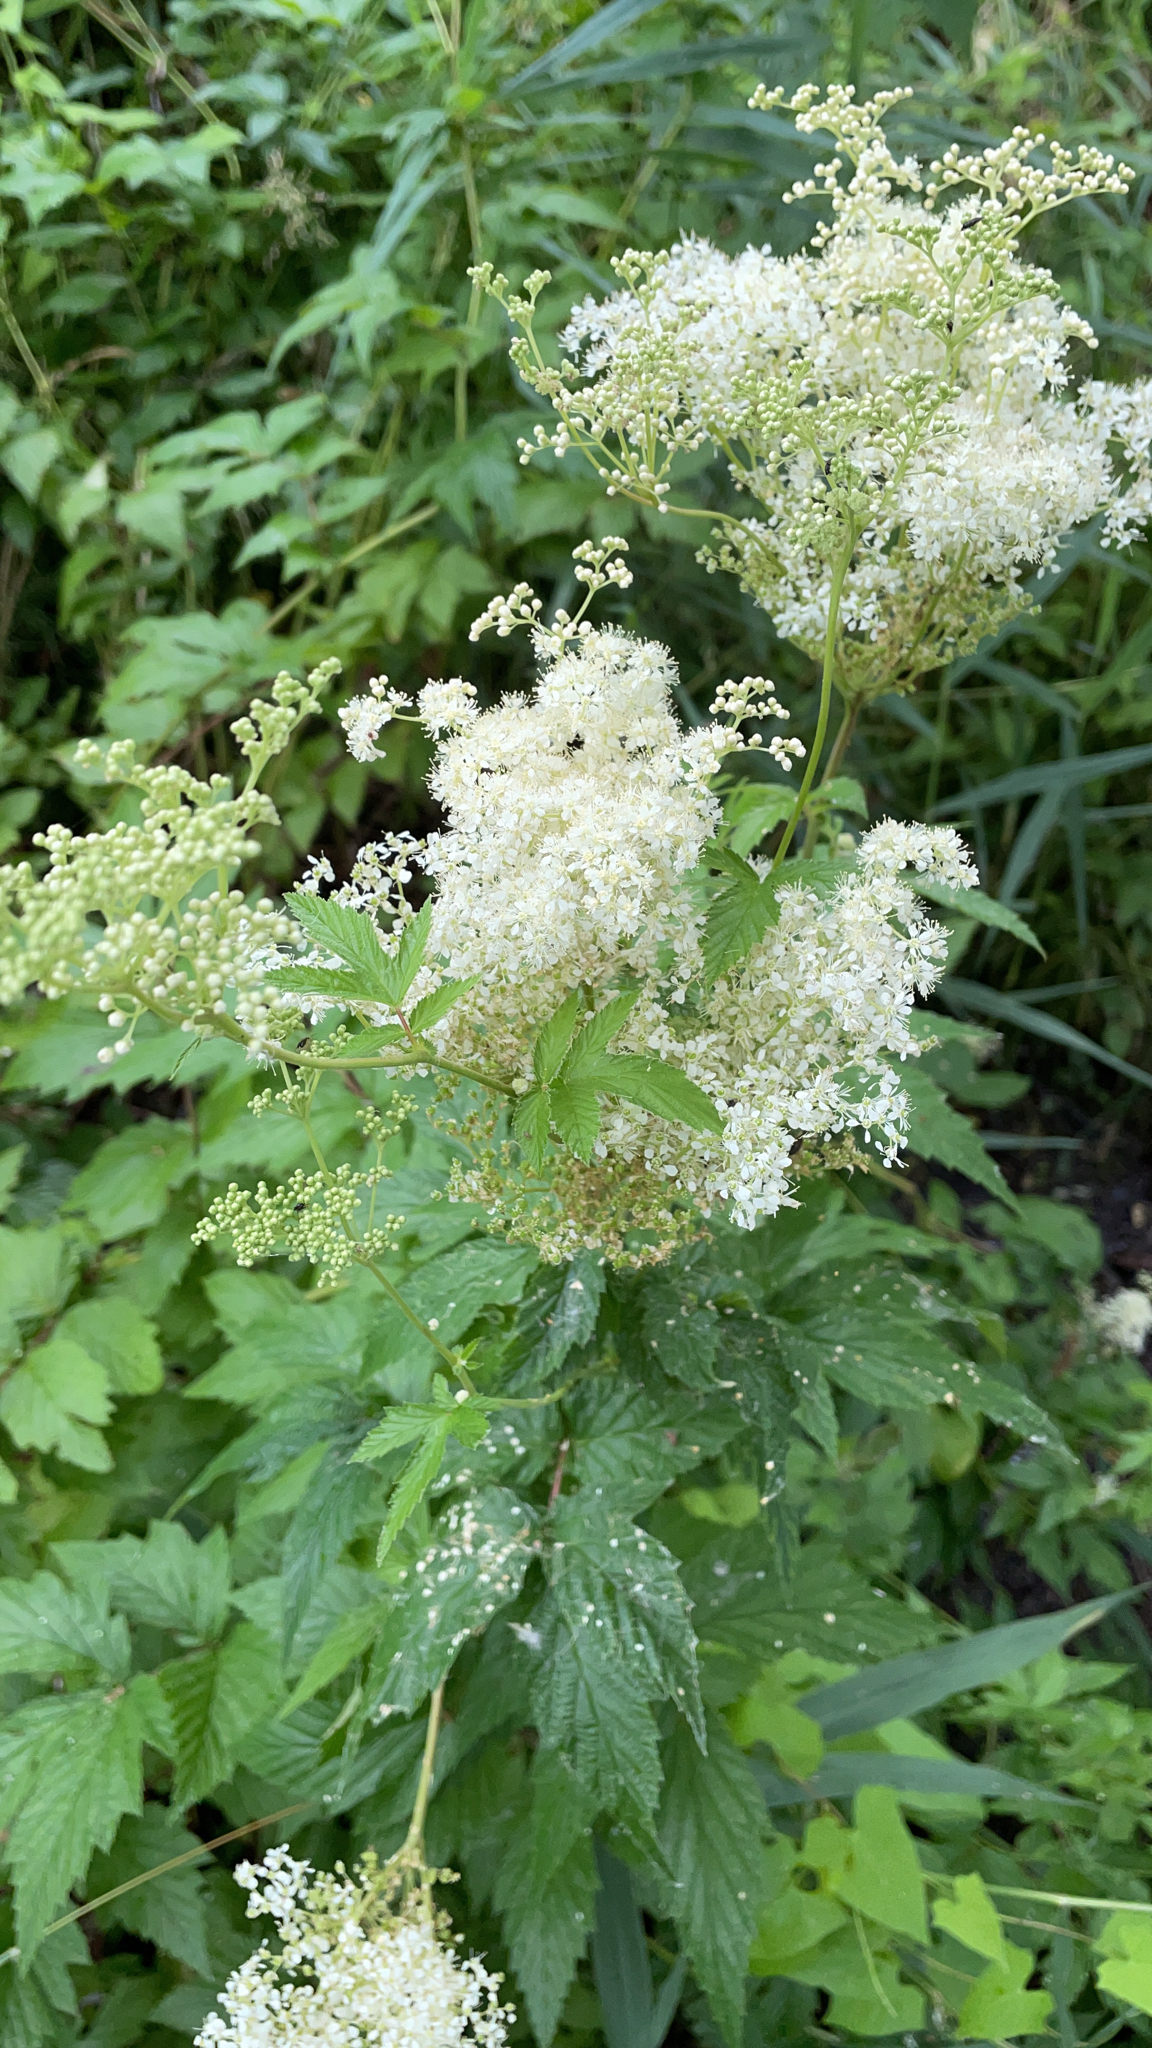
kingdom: Plantae
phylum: Tracheophyta
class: Magnoliopsida
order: Rosales
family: Rosaceae
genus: Filipendula
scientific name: Filipendula ulmaria
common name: Meadowsweet
